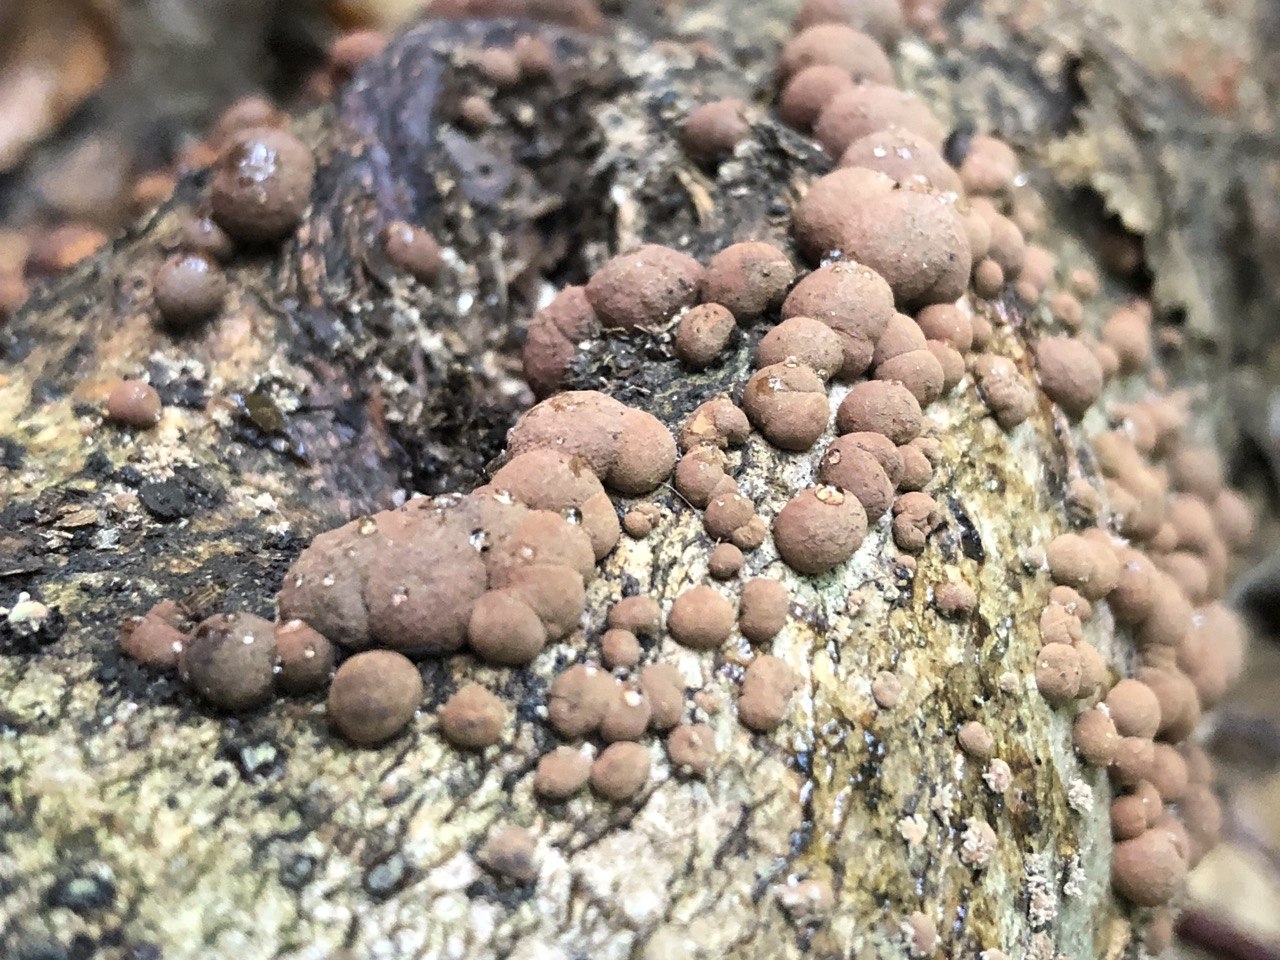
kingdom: Fungi
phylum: Ascomycota
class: Sordariomycetes
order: Xylariales
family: Hypoxylaceae
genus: Hypoxylon
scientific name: Hypoxylon fuscum
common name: Hazel woodwart
